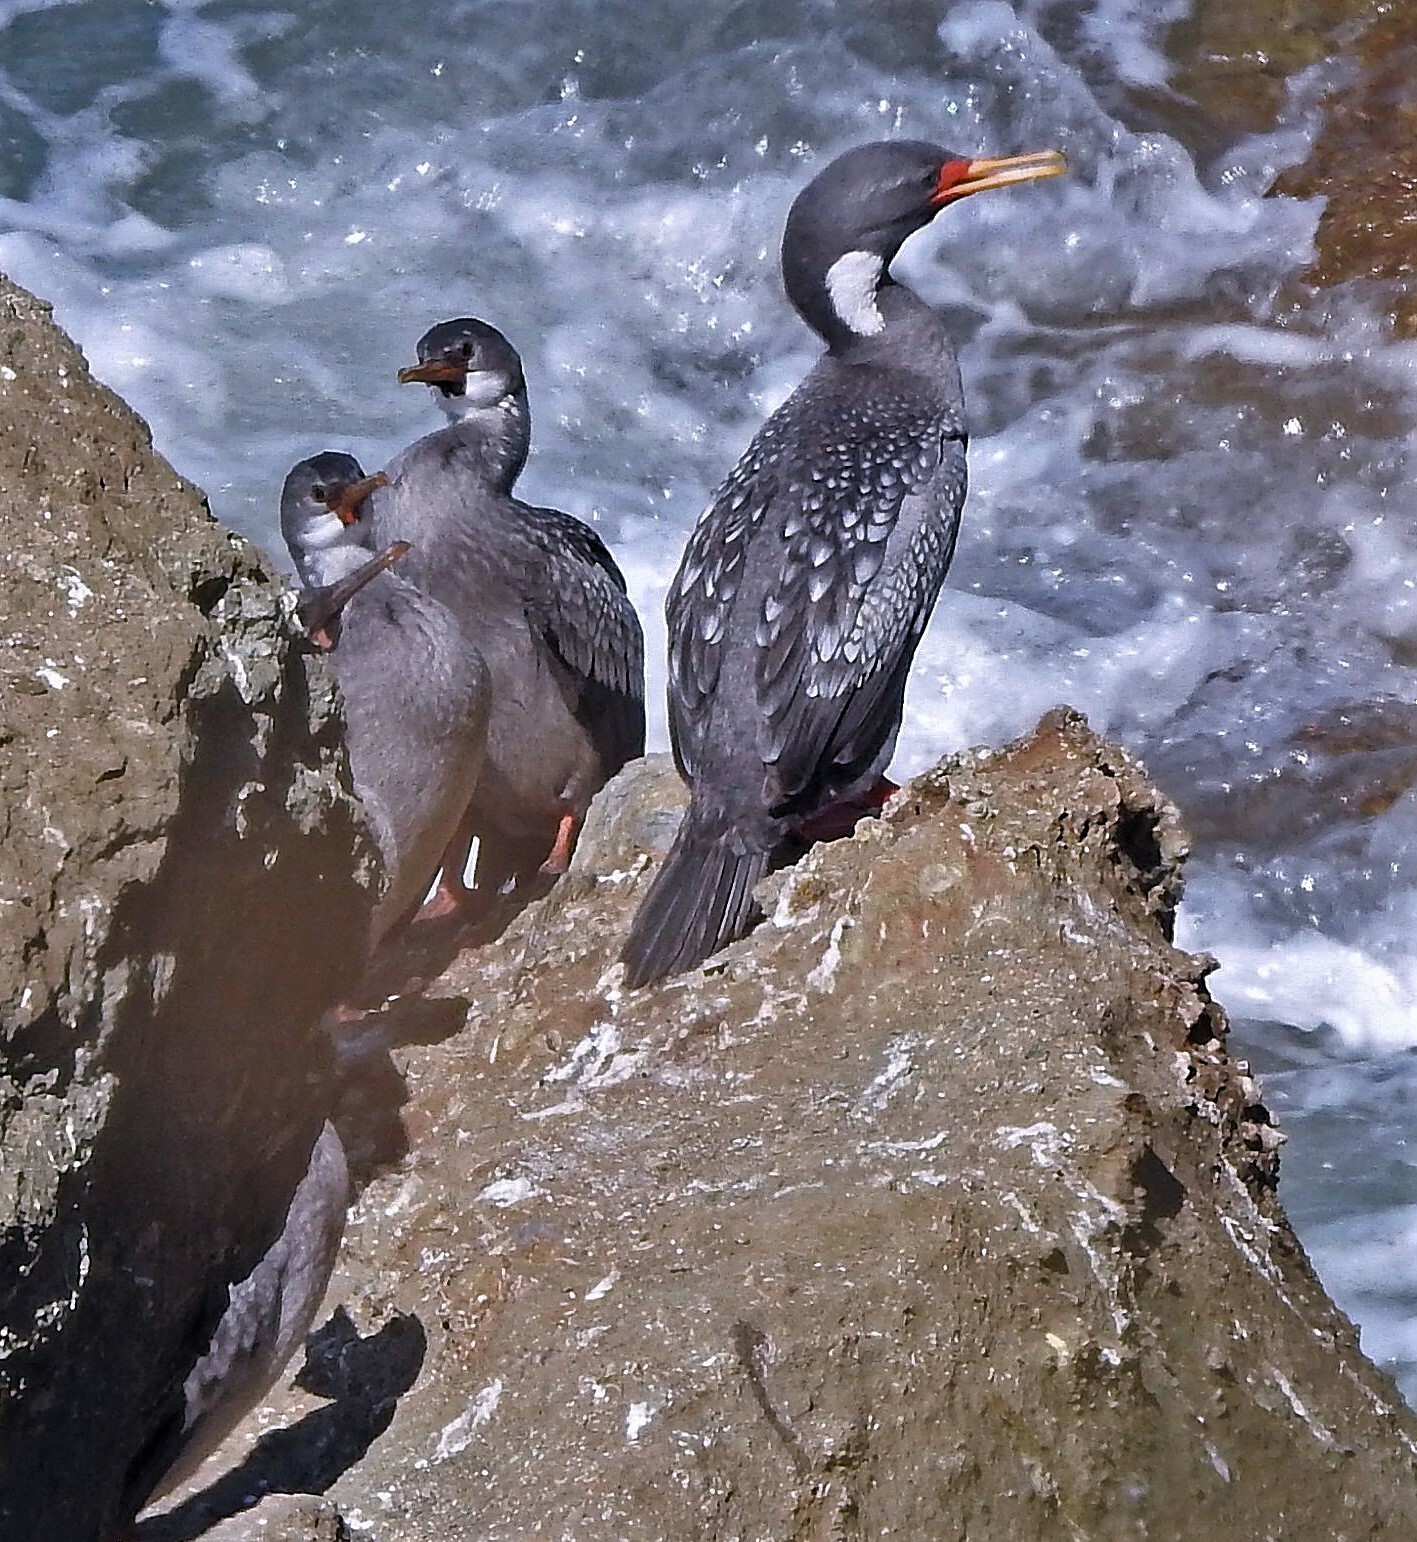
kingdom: Animalia
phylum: Chordata
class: Aves
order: Suliformes
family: Phalacrocoracidae
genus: Phalacrocorax
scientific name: Phalacrocorax gaimardi
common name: Red-legged cormorant
